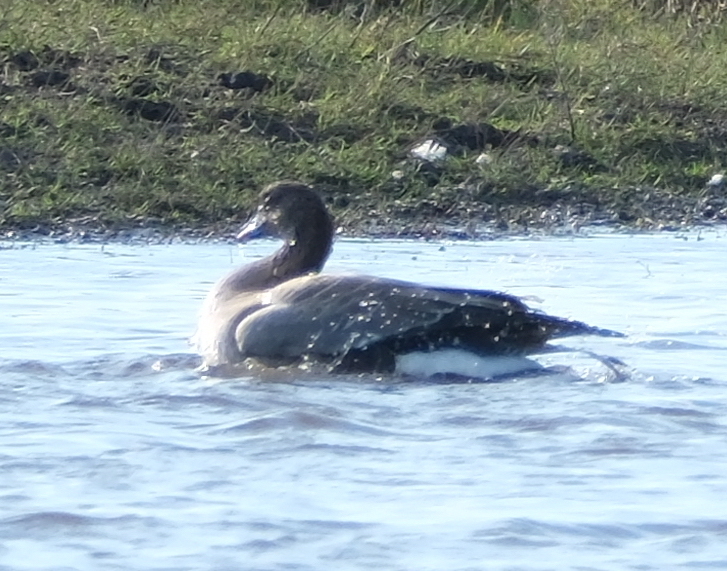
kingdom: Animalia
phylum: Chordata
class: Aves
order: Anseriformes
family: Anatidae
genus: Anser
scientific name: Anser brachyrhynchus
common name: Pink-footed goose
